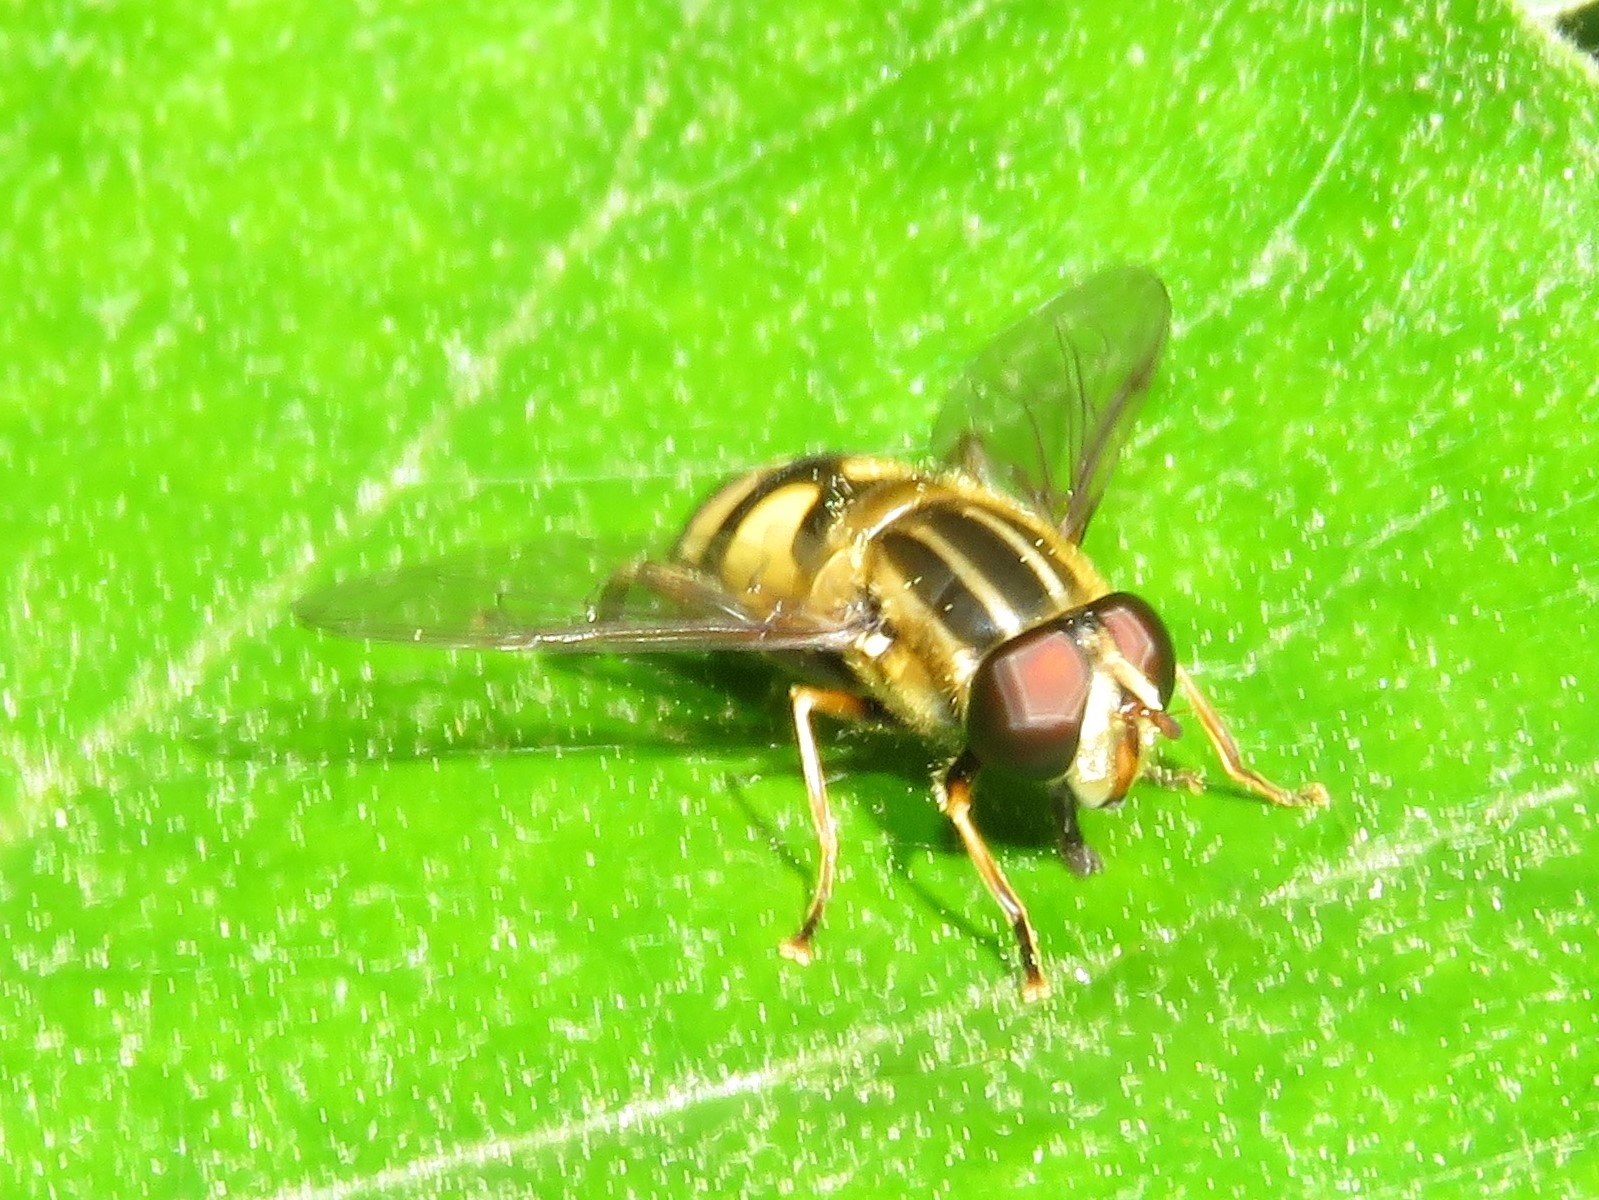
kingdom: Animalia
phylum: Arthropoda
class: Insecta
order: Diptera
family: Syrphidae
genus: Helophilus
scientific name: Helophilus fasciatus
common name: Narrow-headed marsh fly
